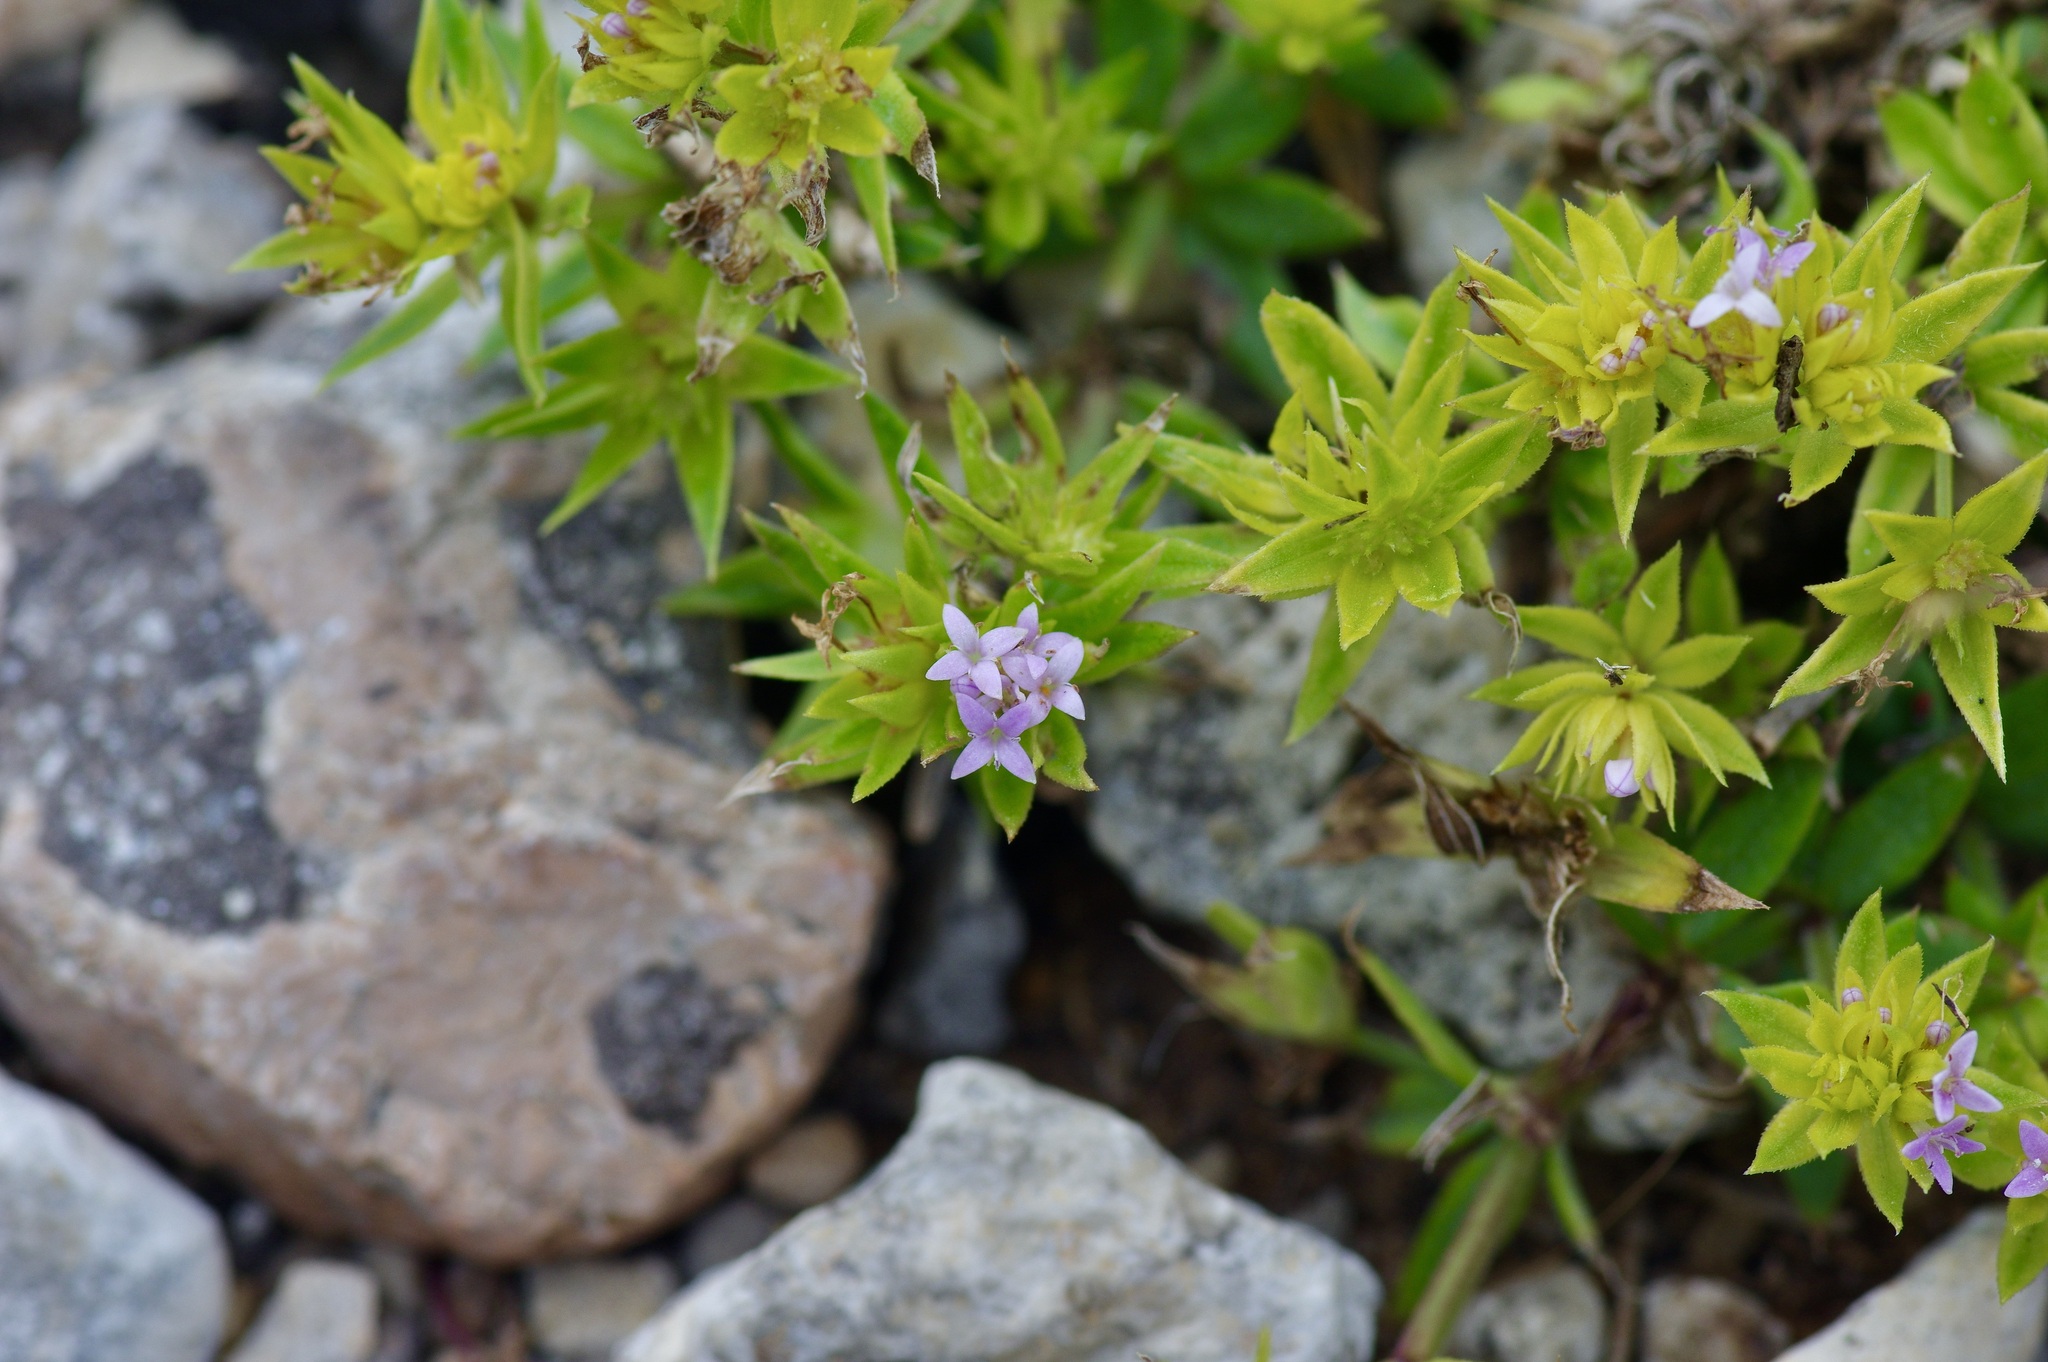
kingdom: Plantae
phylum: Tracheophyta
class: Magnoliopsida
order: Gentianales
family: Rubiaceae
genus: Sherardia
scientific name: Sherardia arvensis
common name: Field madder
